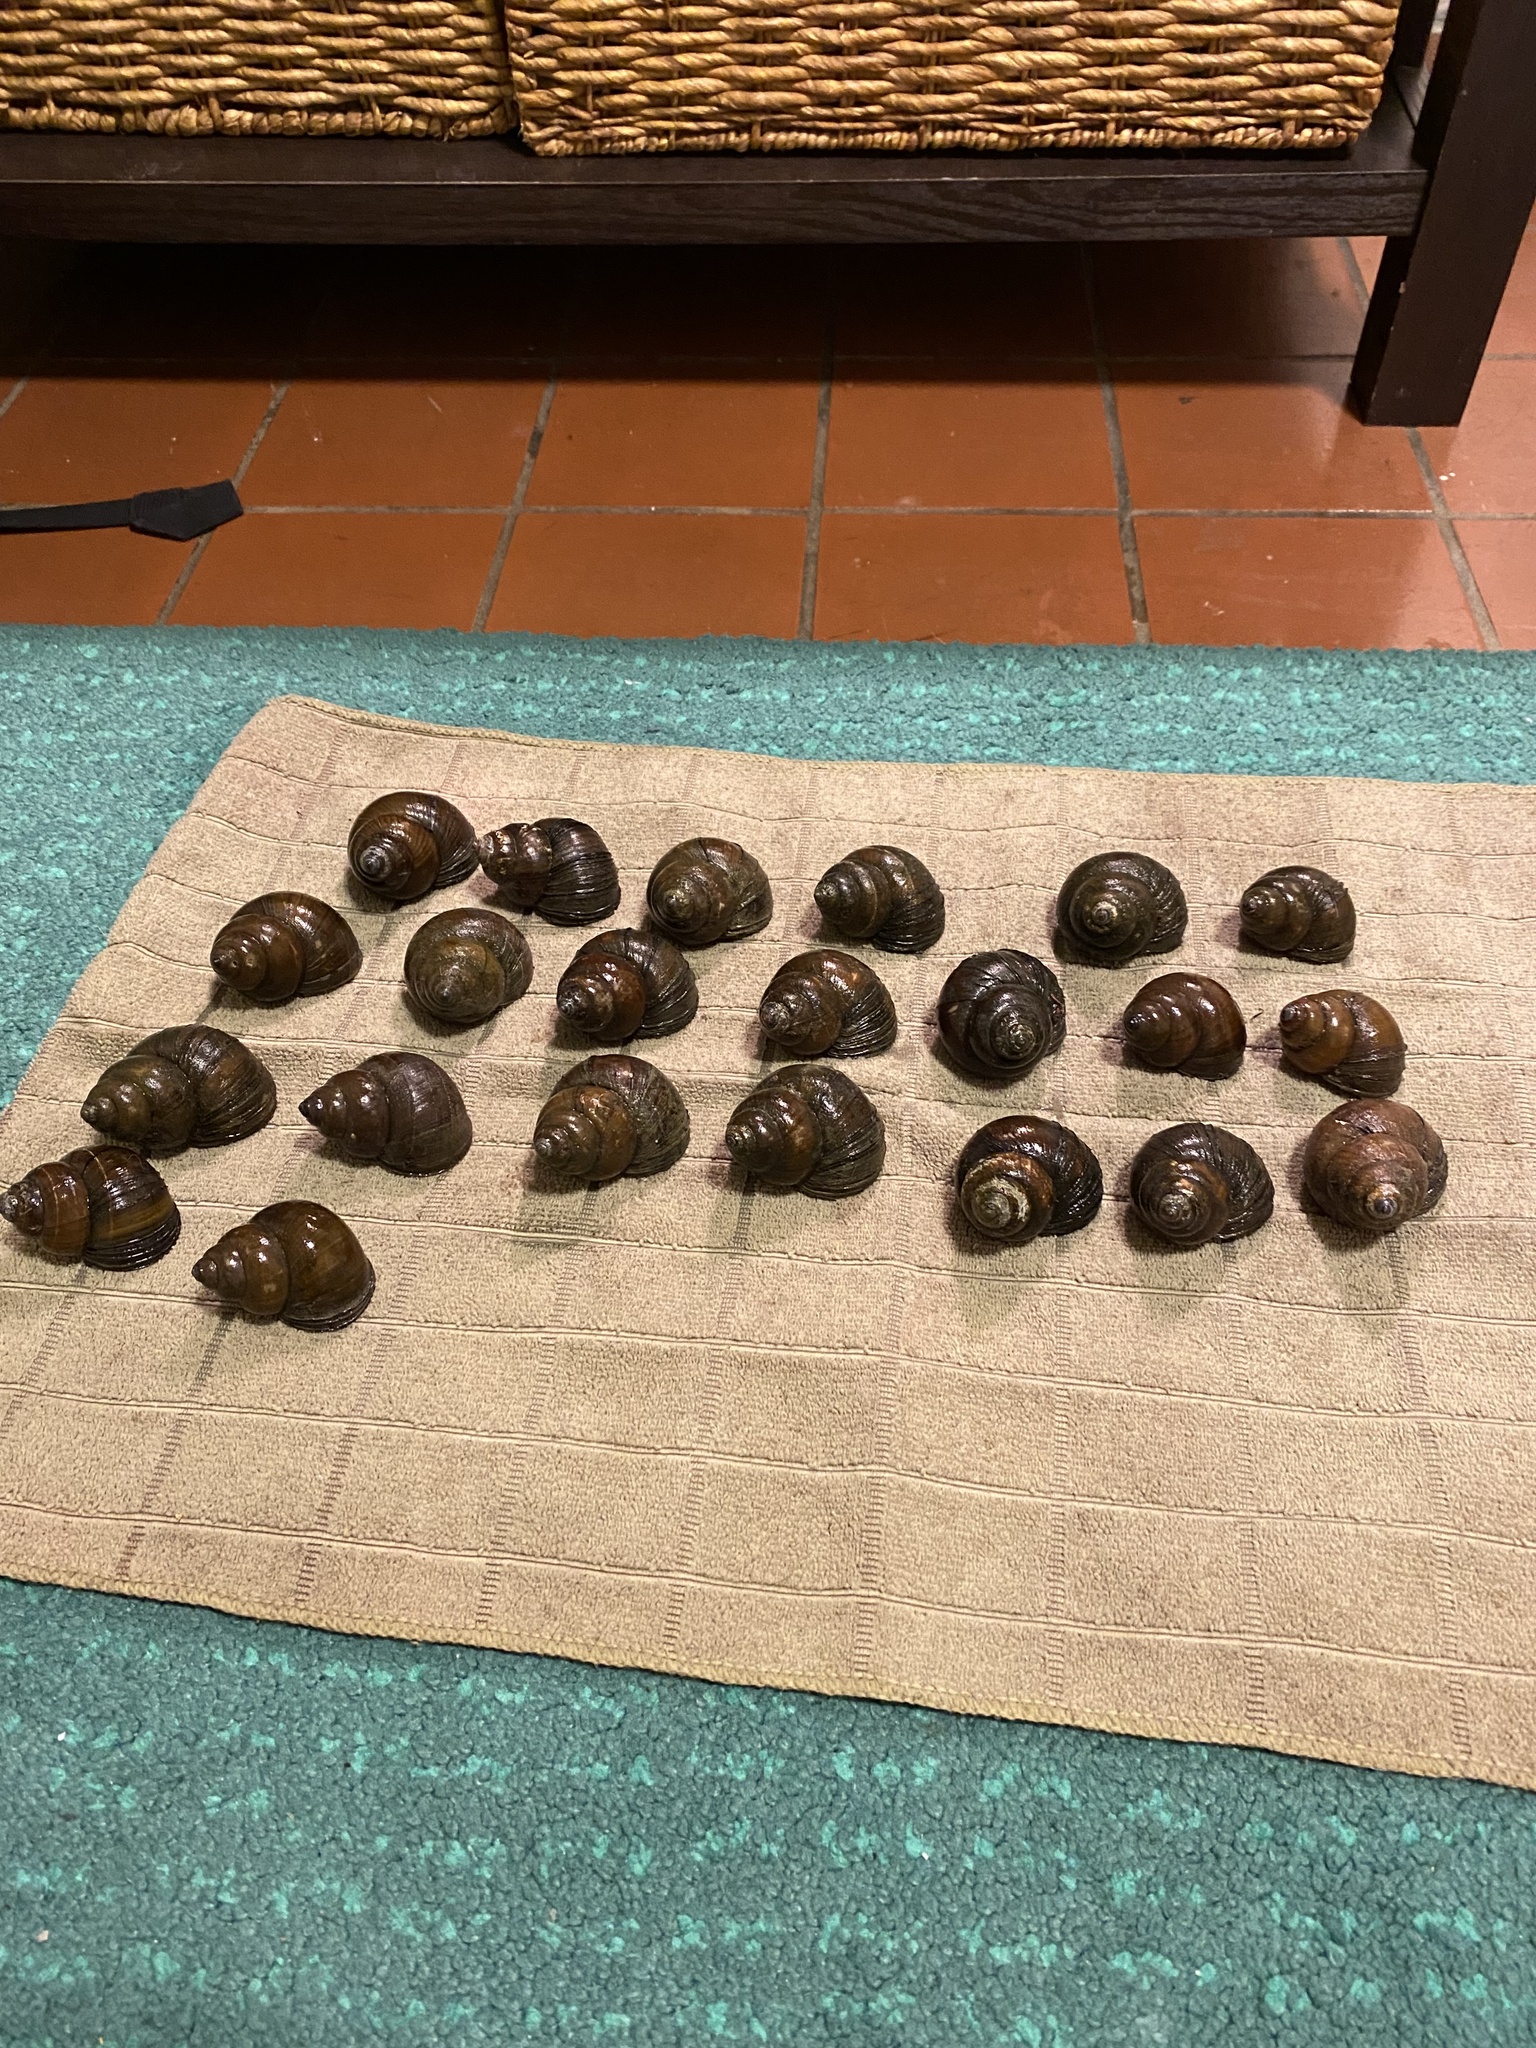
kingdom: Animalia
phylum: Mollusca
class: Gastropoda
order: Architaenioglossa
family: Viviparidae
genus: Cipangopaludina
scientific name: Cipangopaludina chinensis
